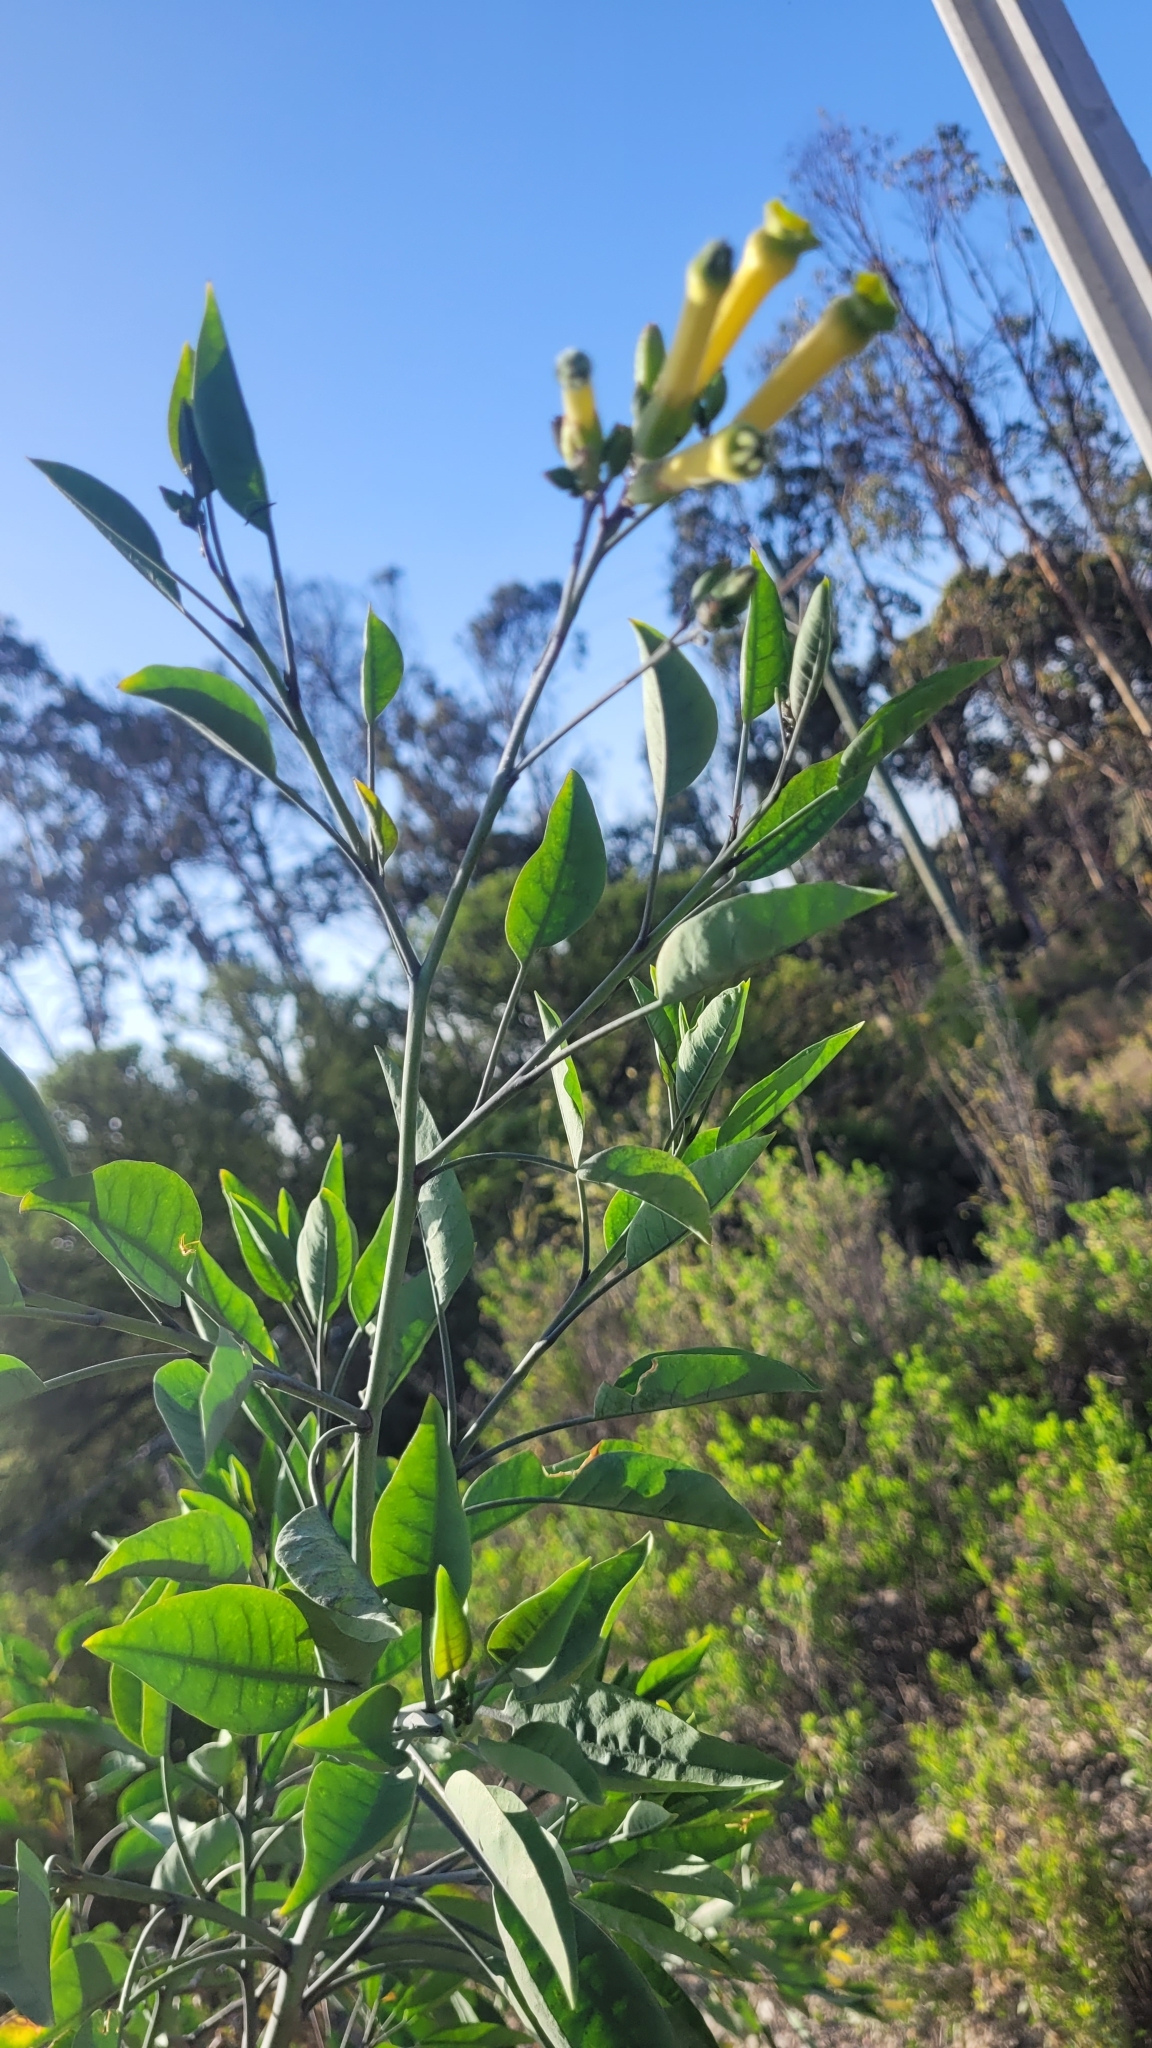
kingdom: Plantae
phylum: Tracheophyta
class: Magnoliopsida
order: Solanales
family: Solanaceae
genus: Nicotiana
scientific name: Nicotiana glauca
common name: Tree tobacco
